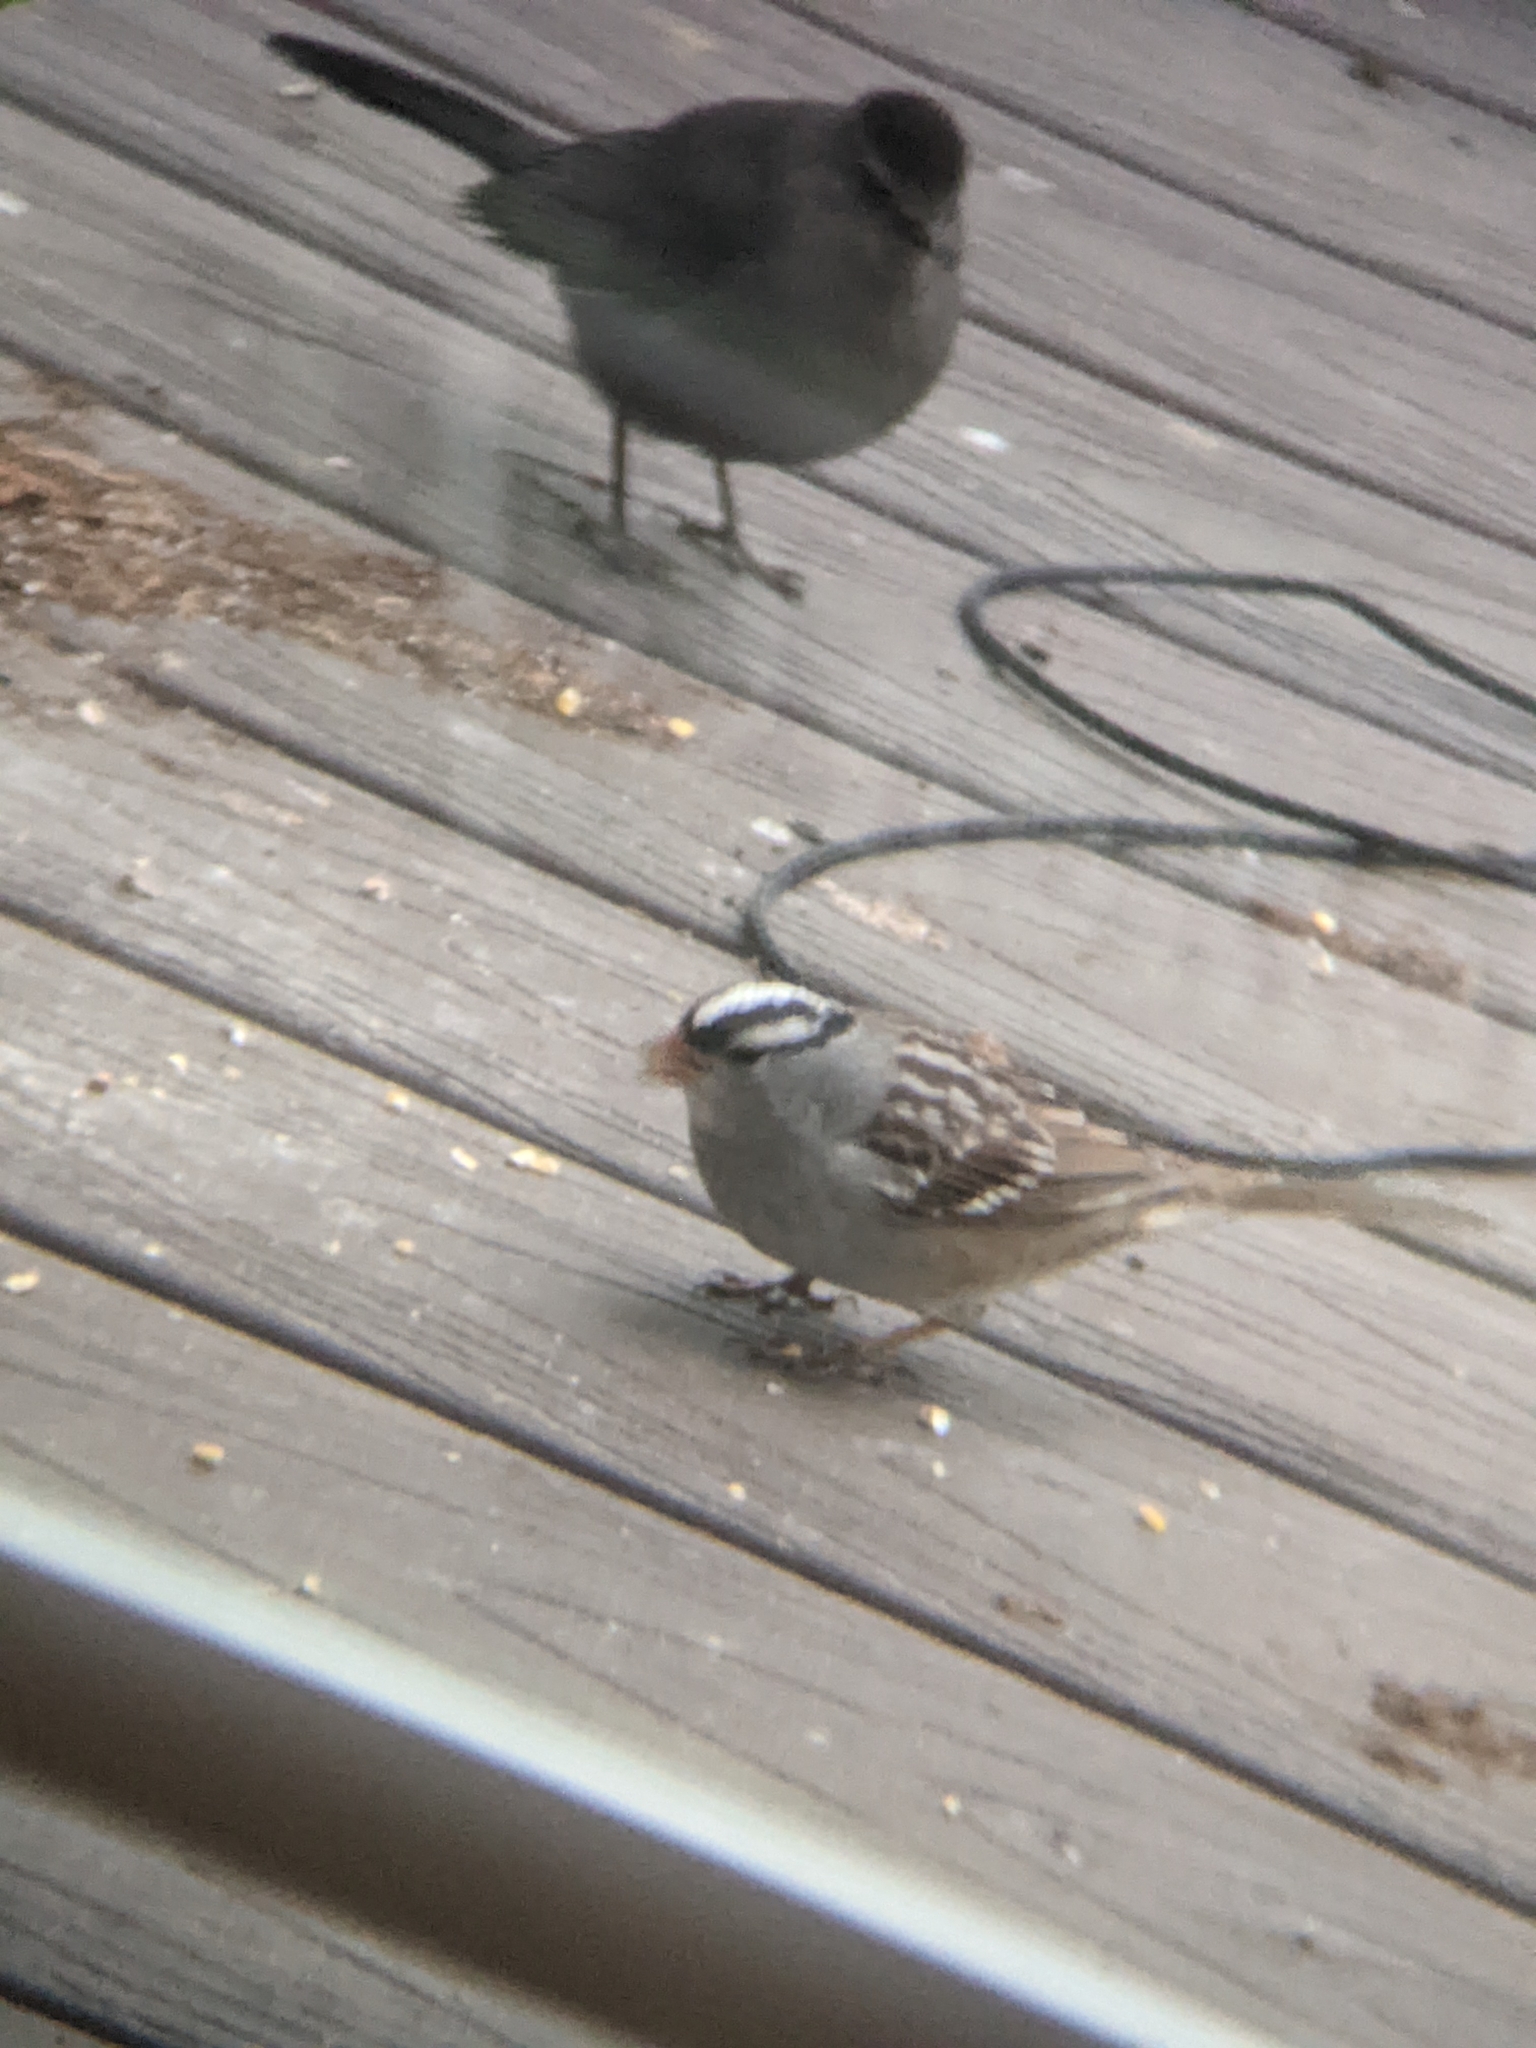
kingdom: Animalia
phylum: Chordata
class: Aves
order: Passeriformes
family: Passerellidae
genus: Zonotrichia
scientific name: Zonotrichia leucophrys
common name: White-crowned sparrow
